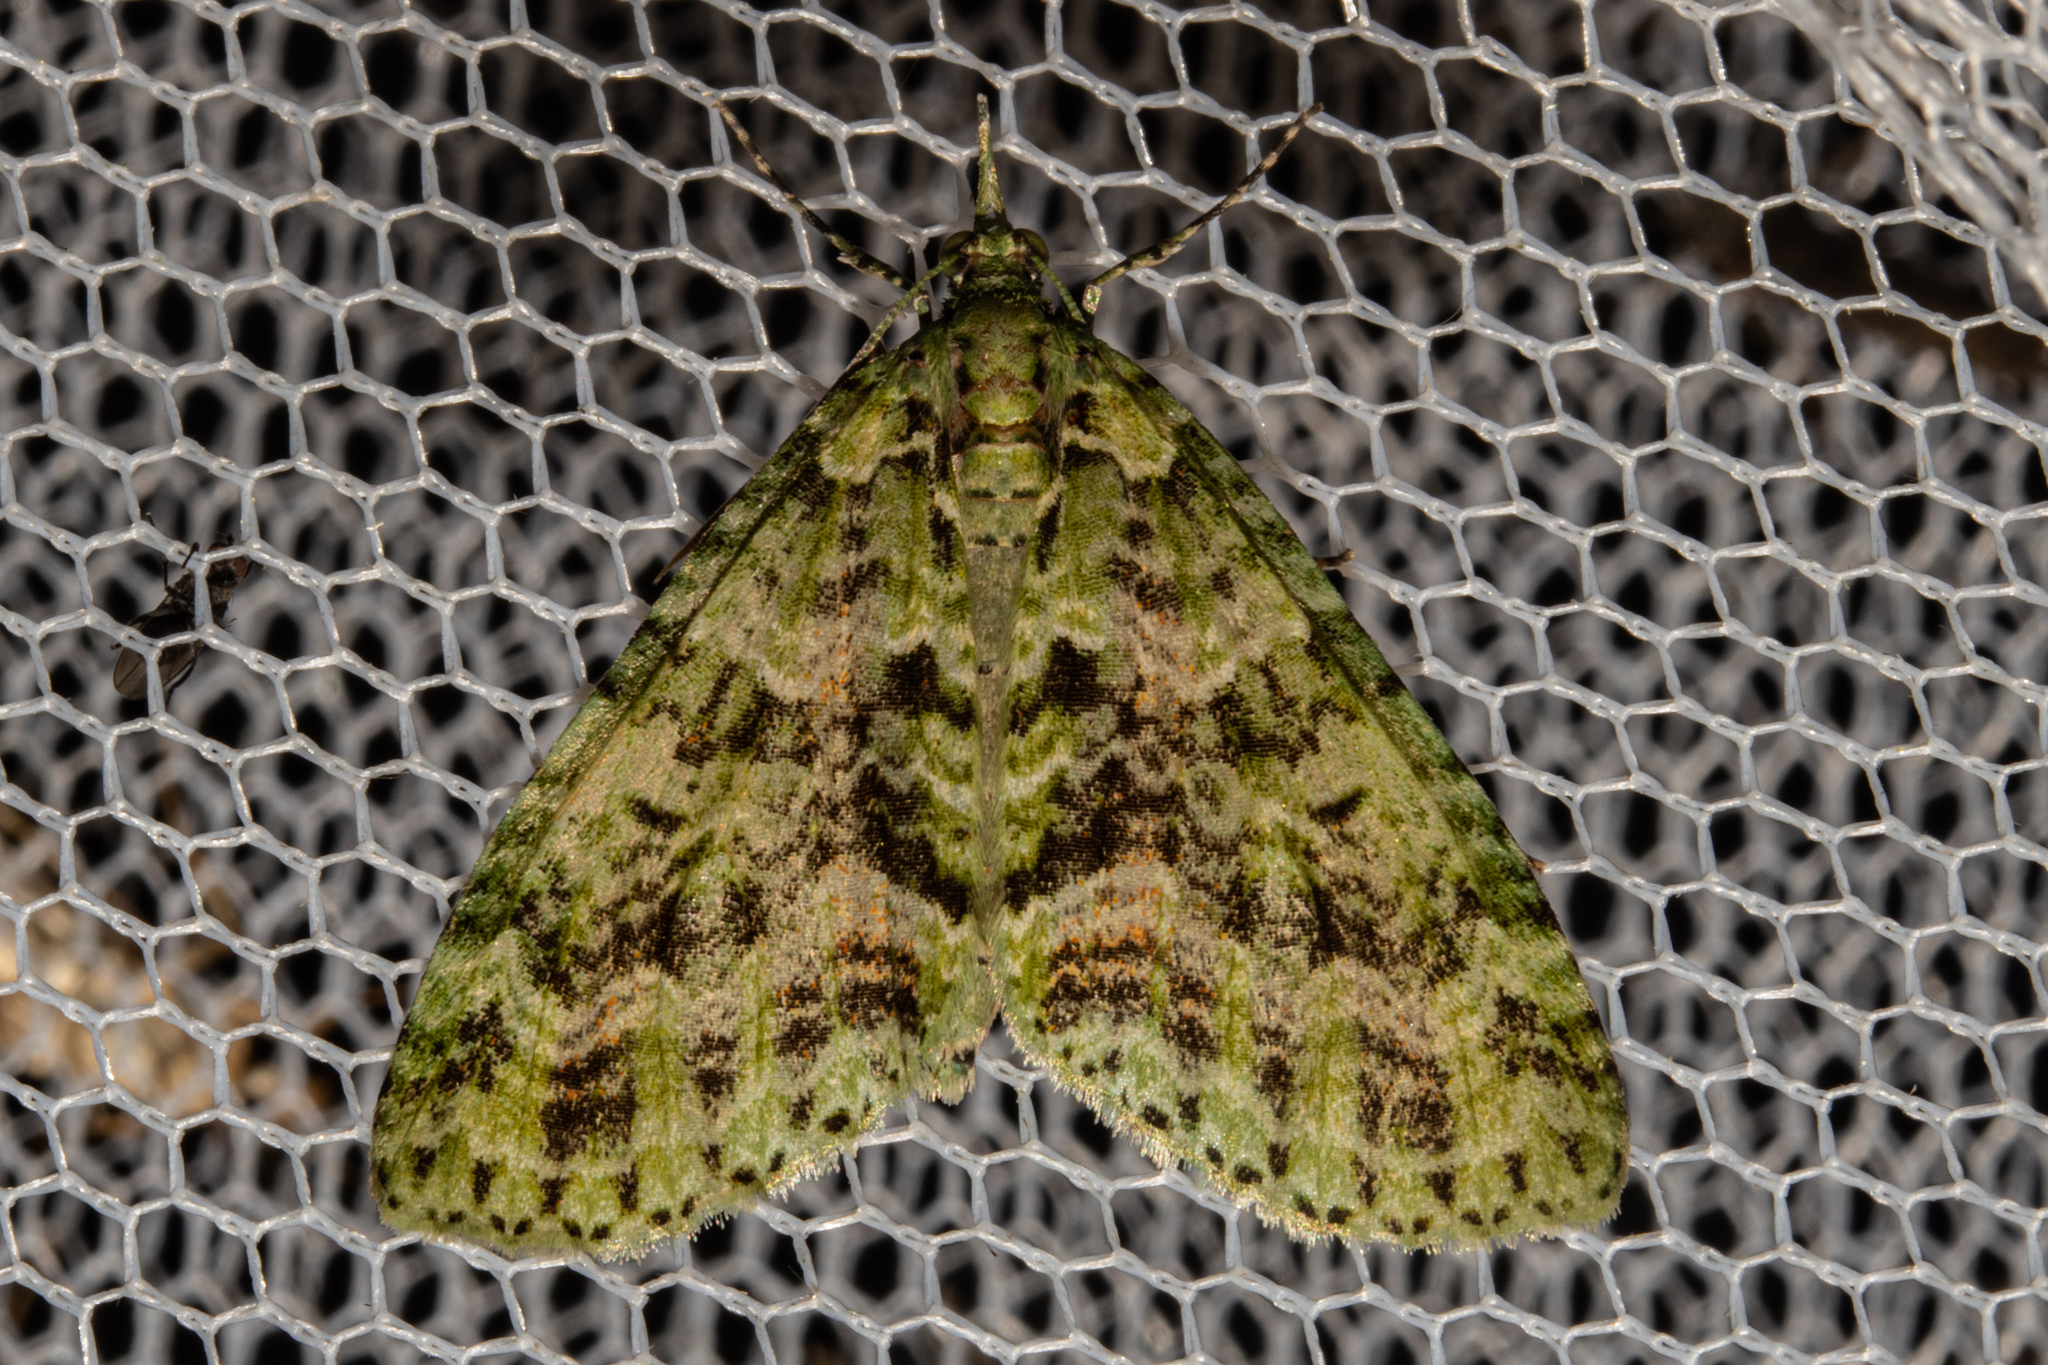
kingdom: Animalia
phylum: Arthropoda
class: Insecta
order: Lepidoptera
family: Geometridae
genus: Tatosoma
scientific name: Tatosoma tipulata
